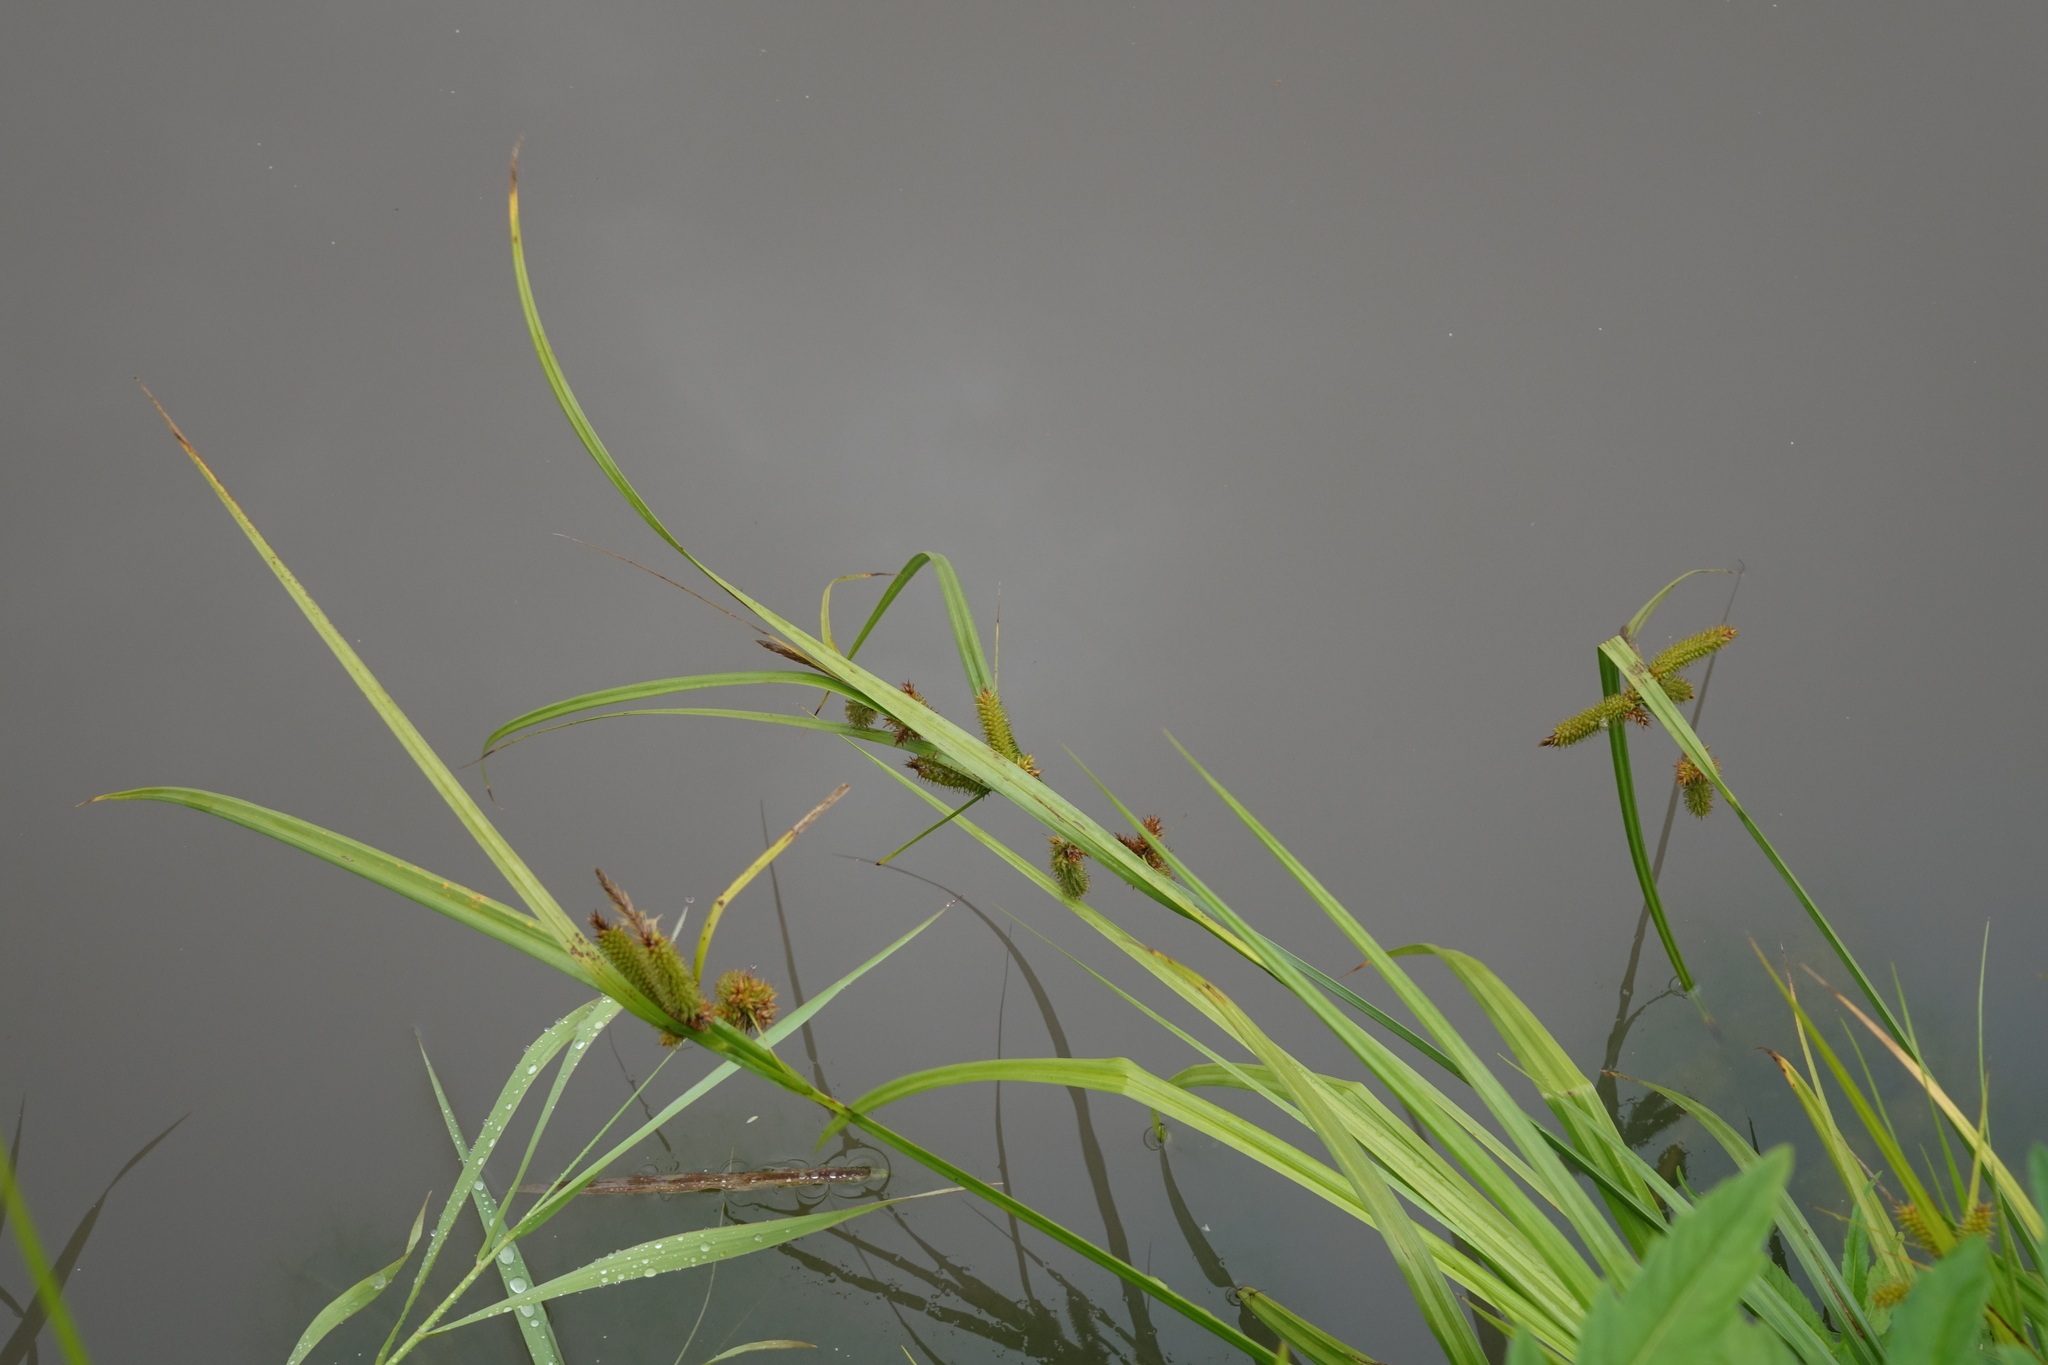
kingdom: Plantae
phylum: Tracheophyta
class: Liliopsida
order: Poales
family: Cyperaceae
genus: Carex
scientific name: Carex pseudocyperus
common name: Cyperus sedge
